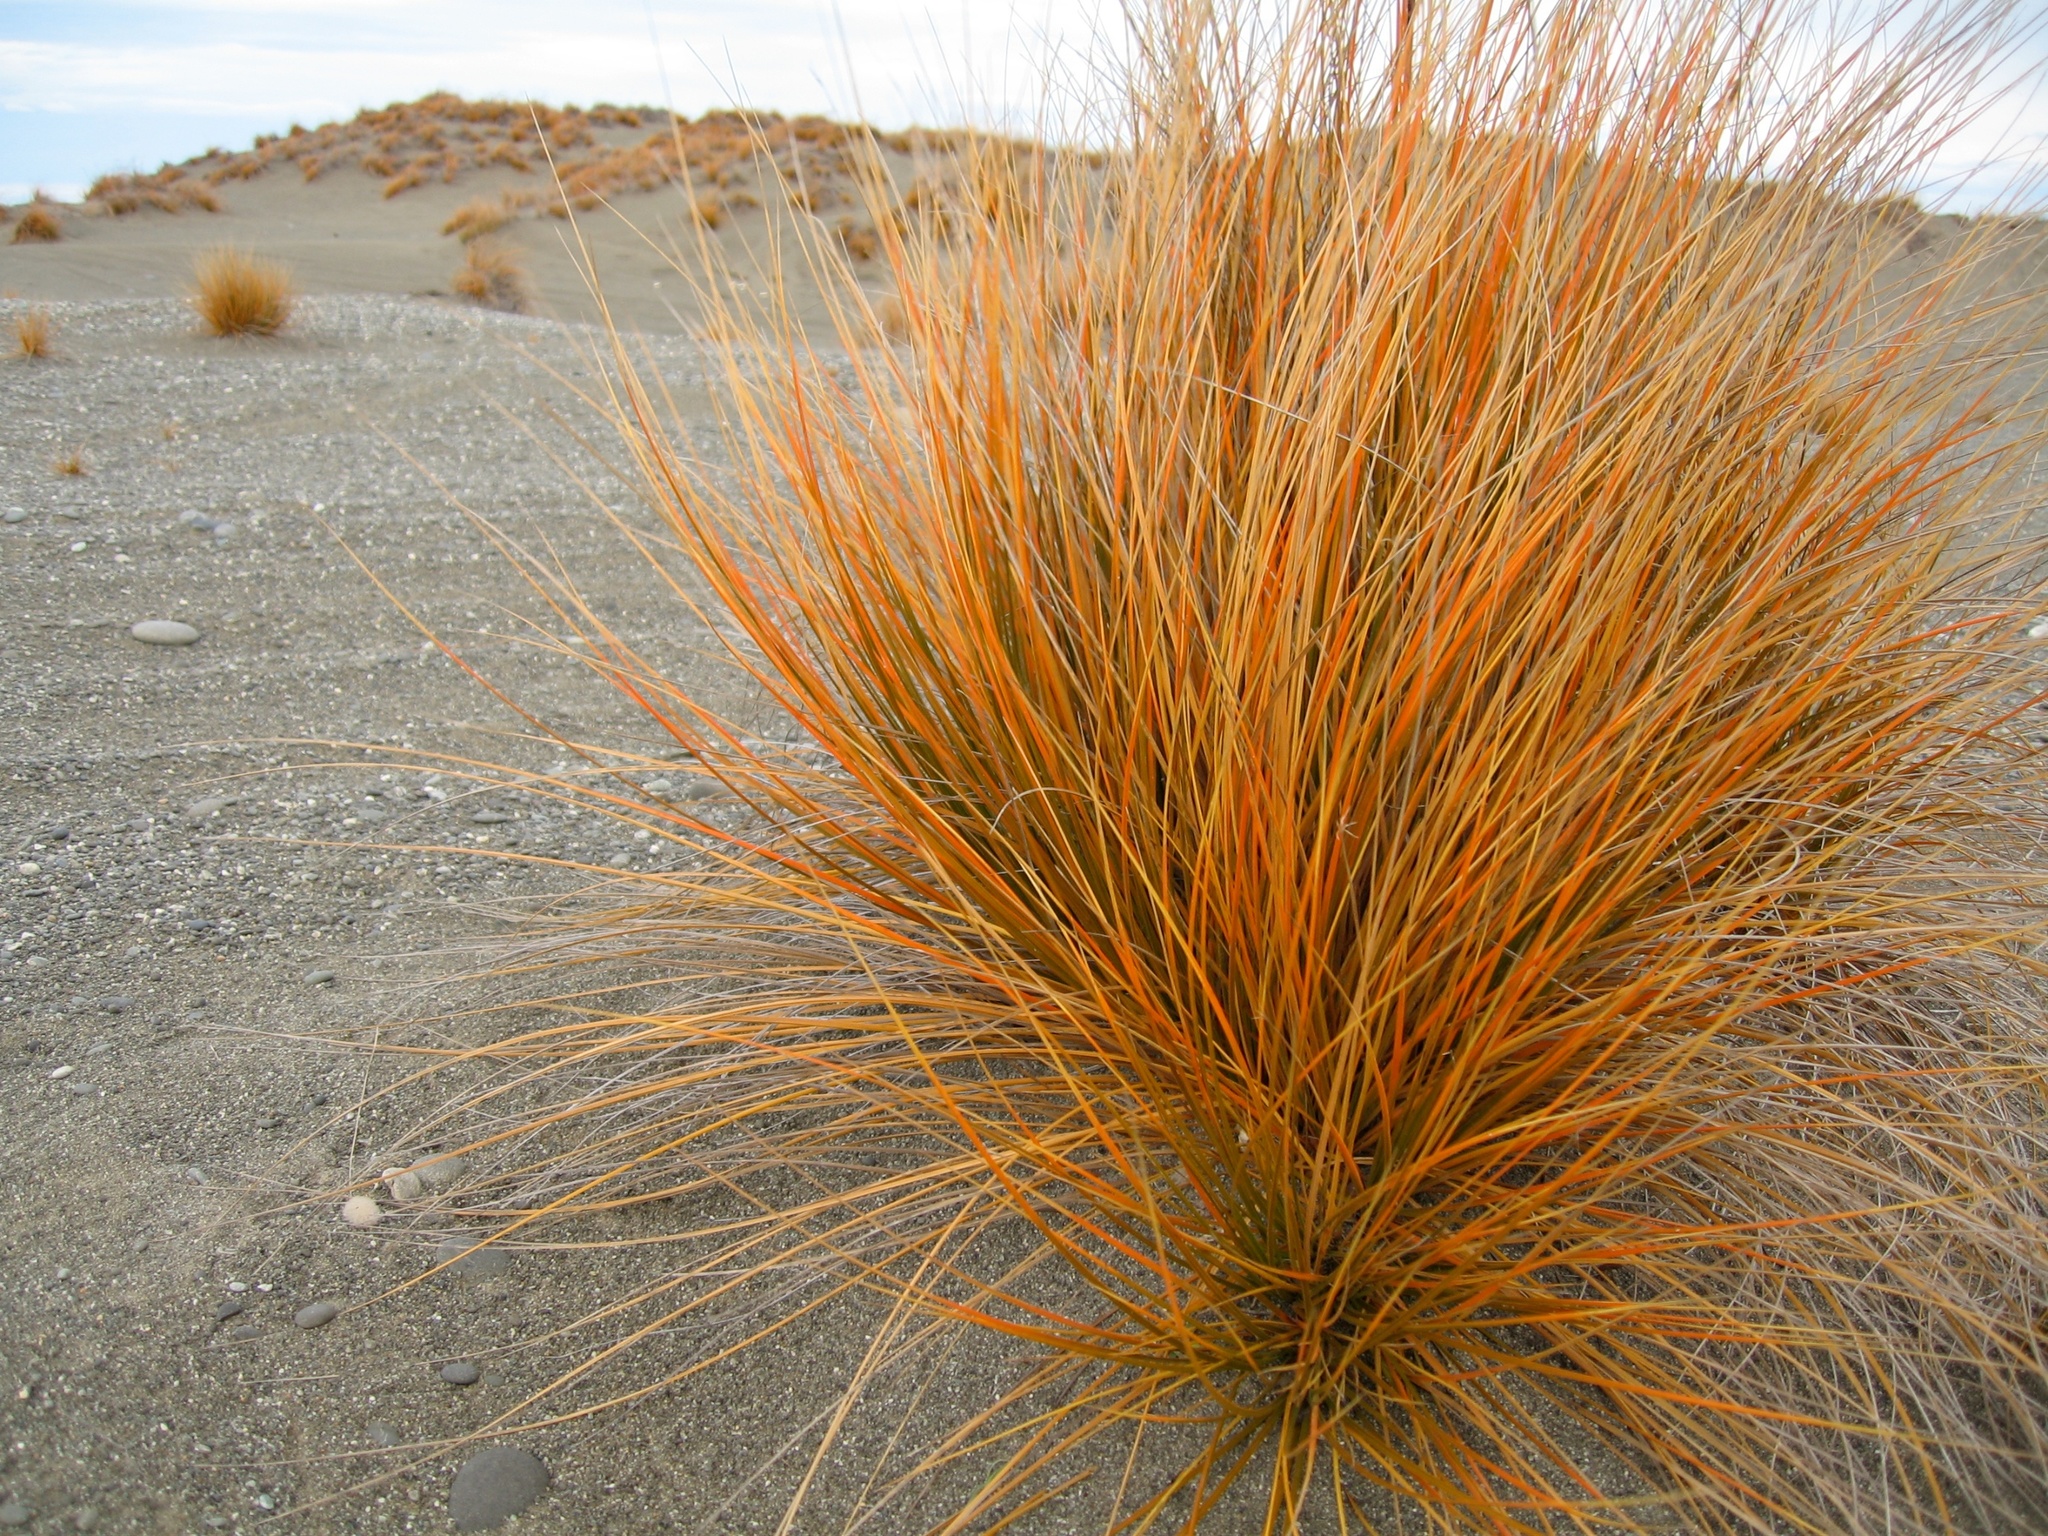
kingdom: Plantae
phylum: Tracheophyta
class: Liliopsida
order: Poales
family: Cyperaceae
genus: Ficinia
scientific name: Ficinia spiralis
